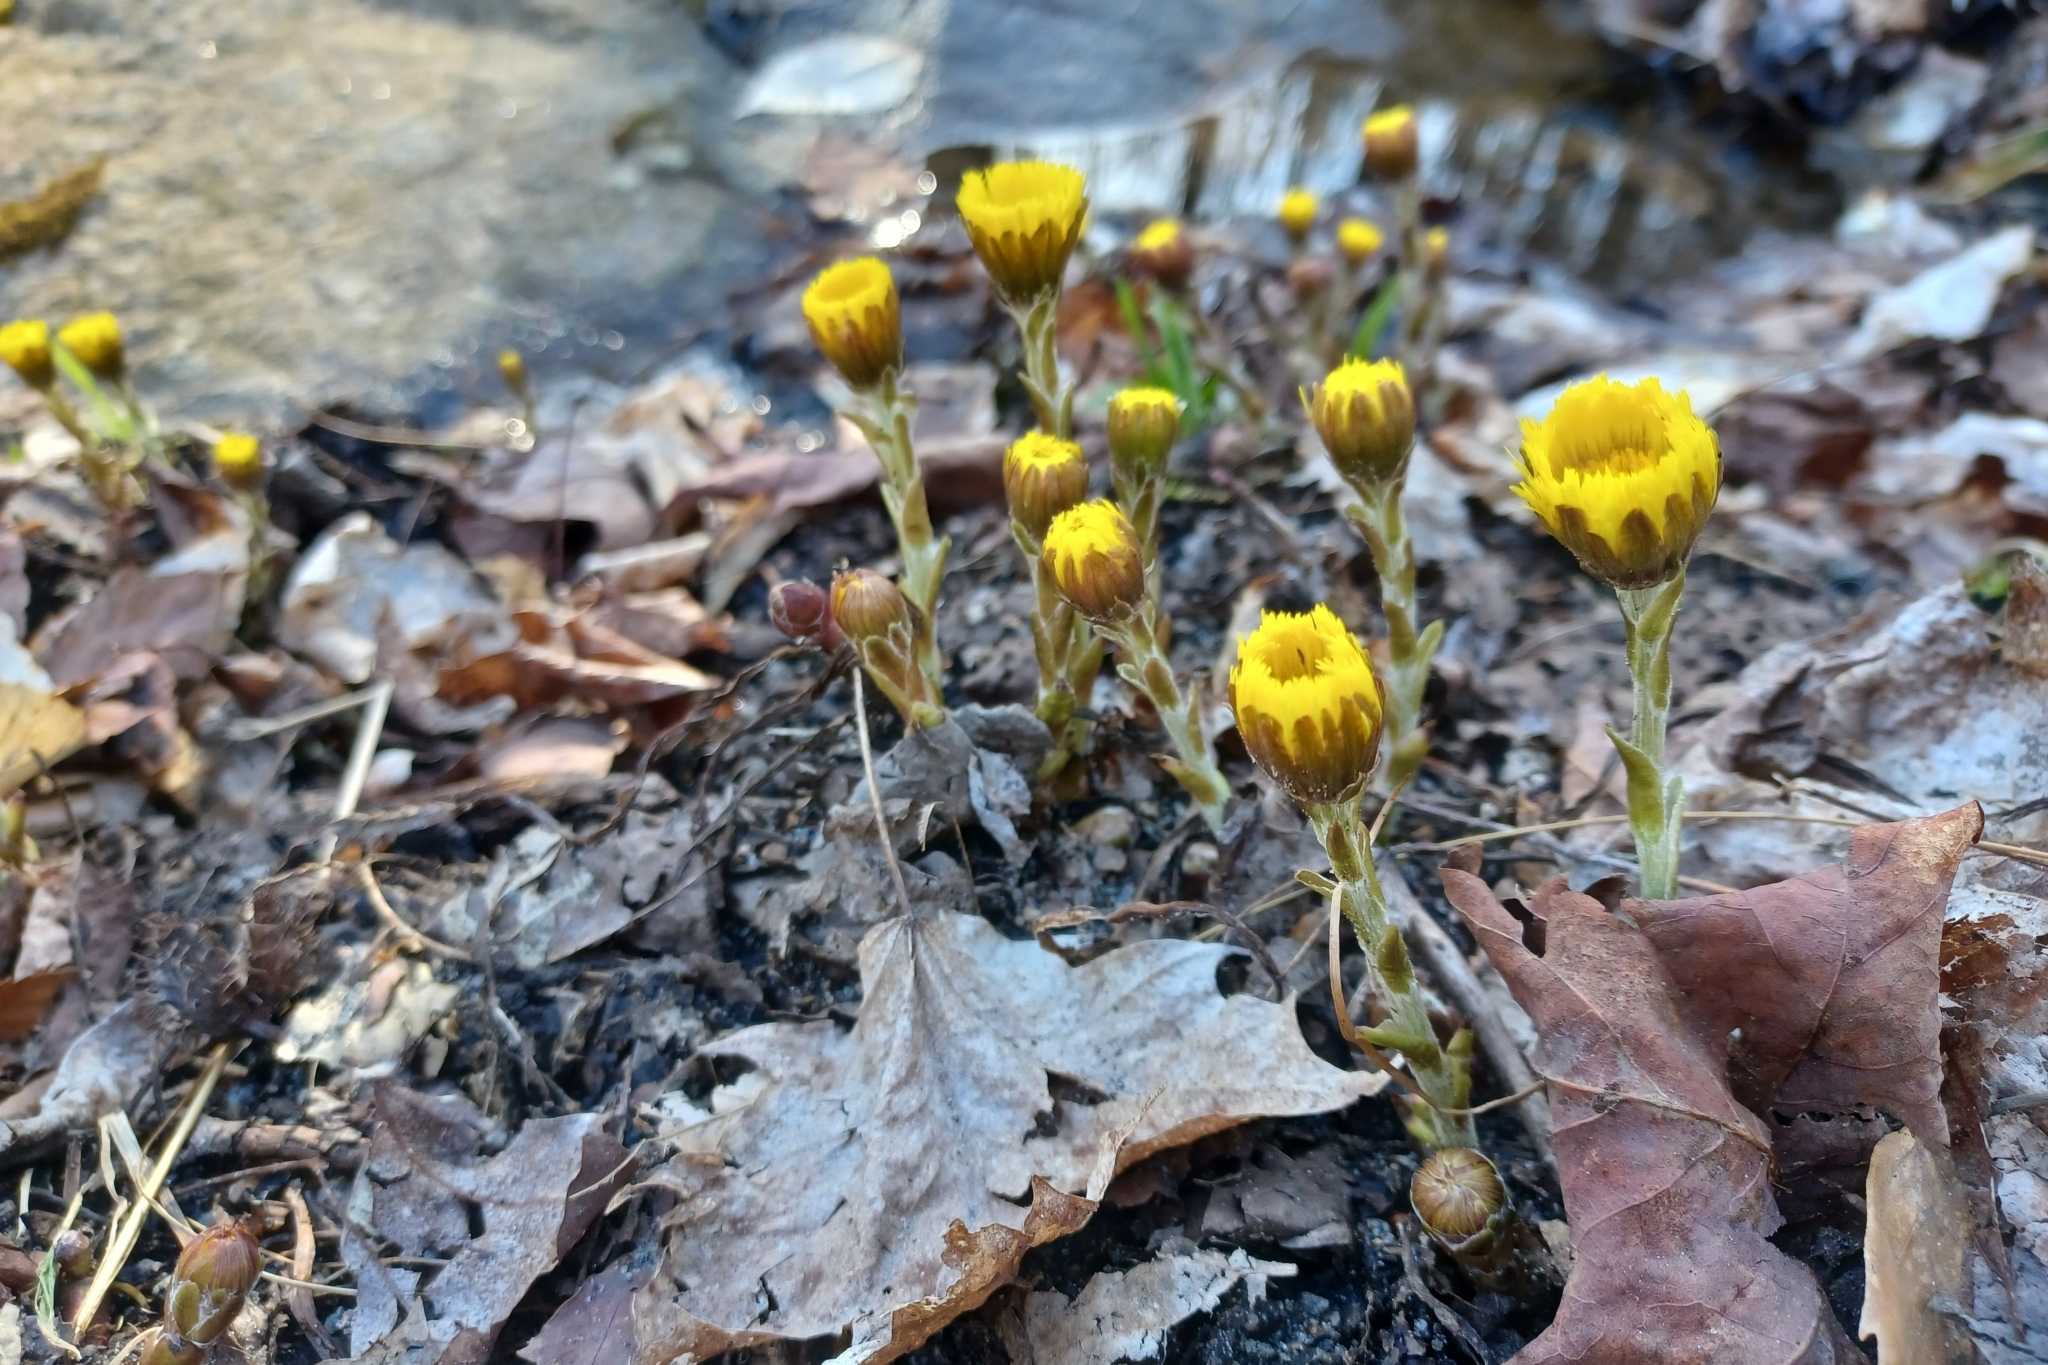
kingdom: Plantae
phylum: Tracheophyta
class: Magnoliopsida
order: Asterales
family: Asteraceae
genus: Tussilago
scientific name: Tussilago farfara
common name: Coltsfoot
